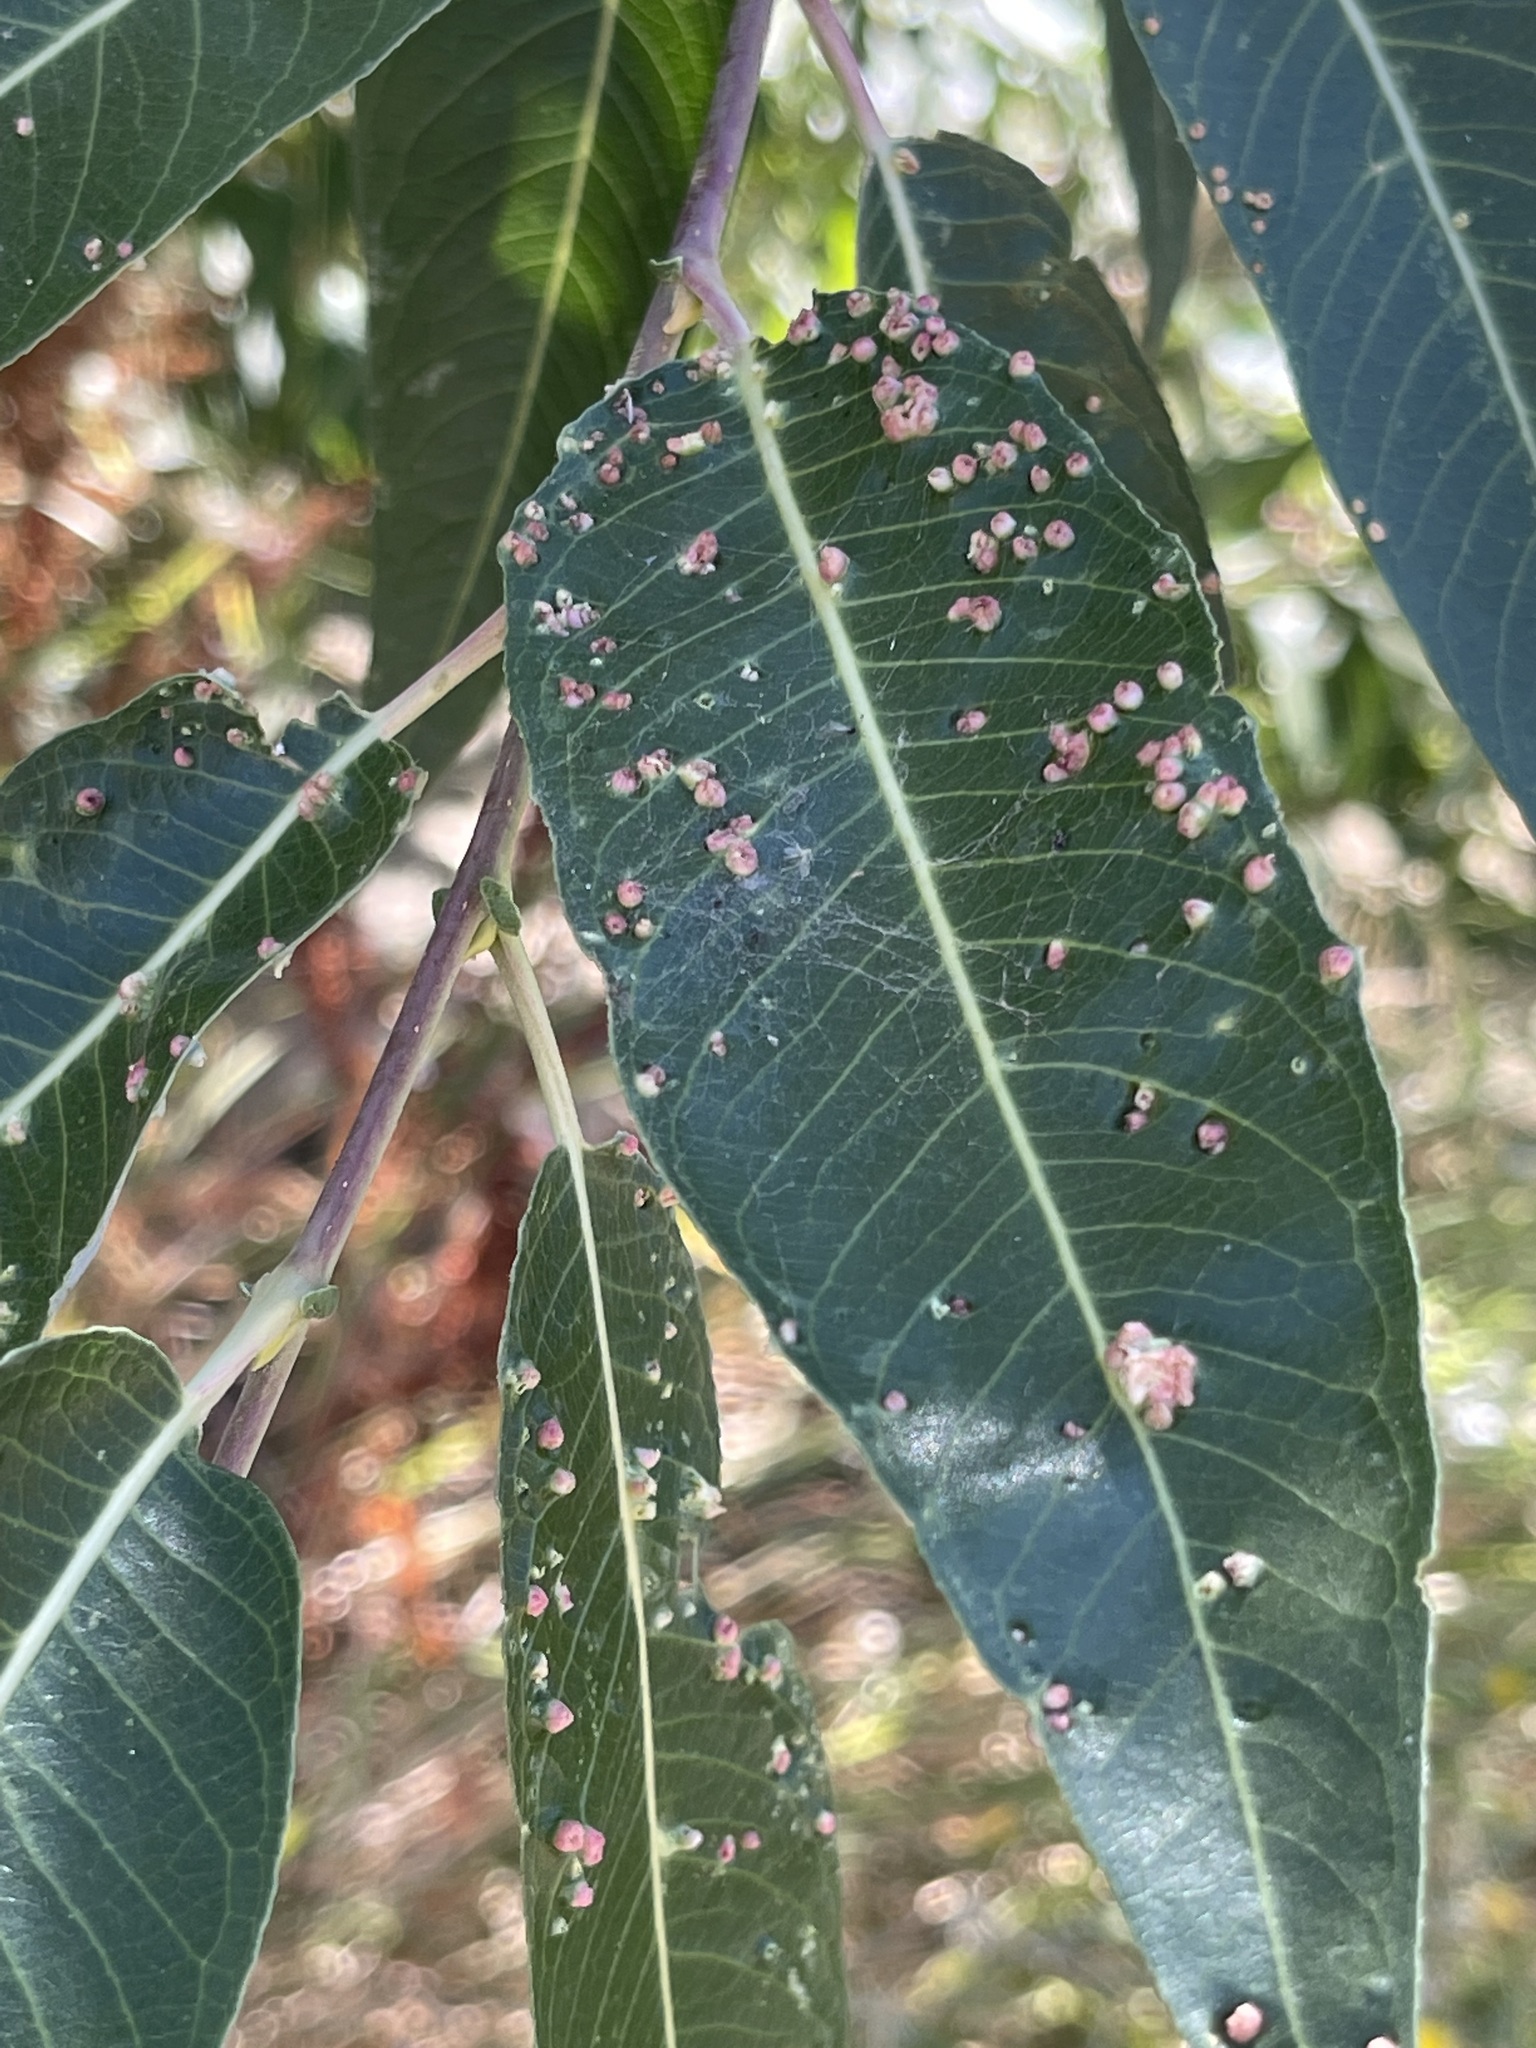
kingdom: Animalia
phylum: Arthropoda
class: Arachnida
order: Trombidiformes
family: Eriophyidae
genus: Aculus
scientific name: Aculus tetanothrix
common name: Willow bead gall mite
